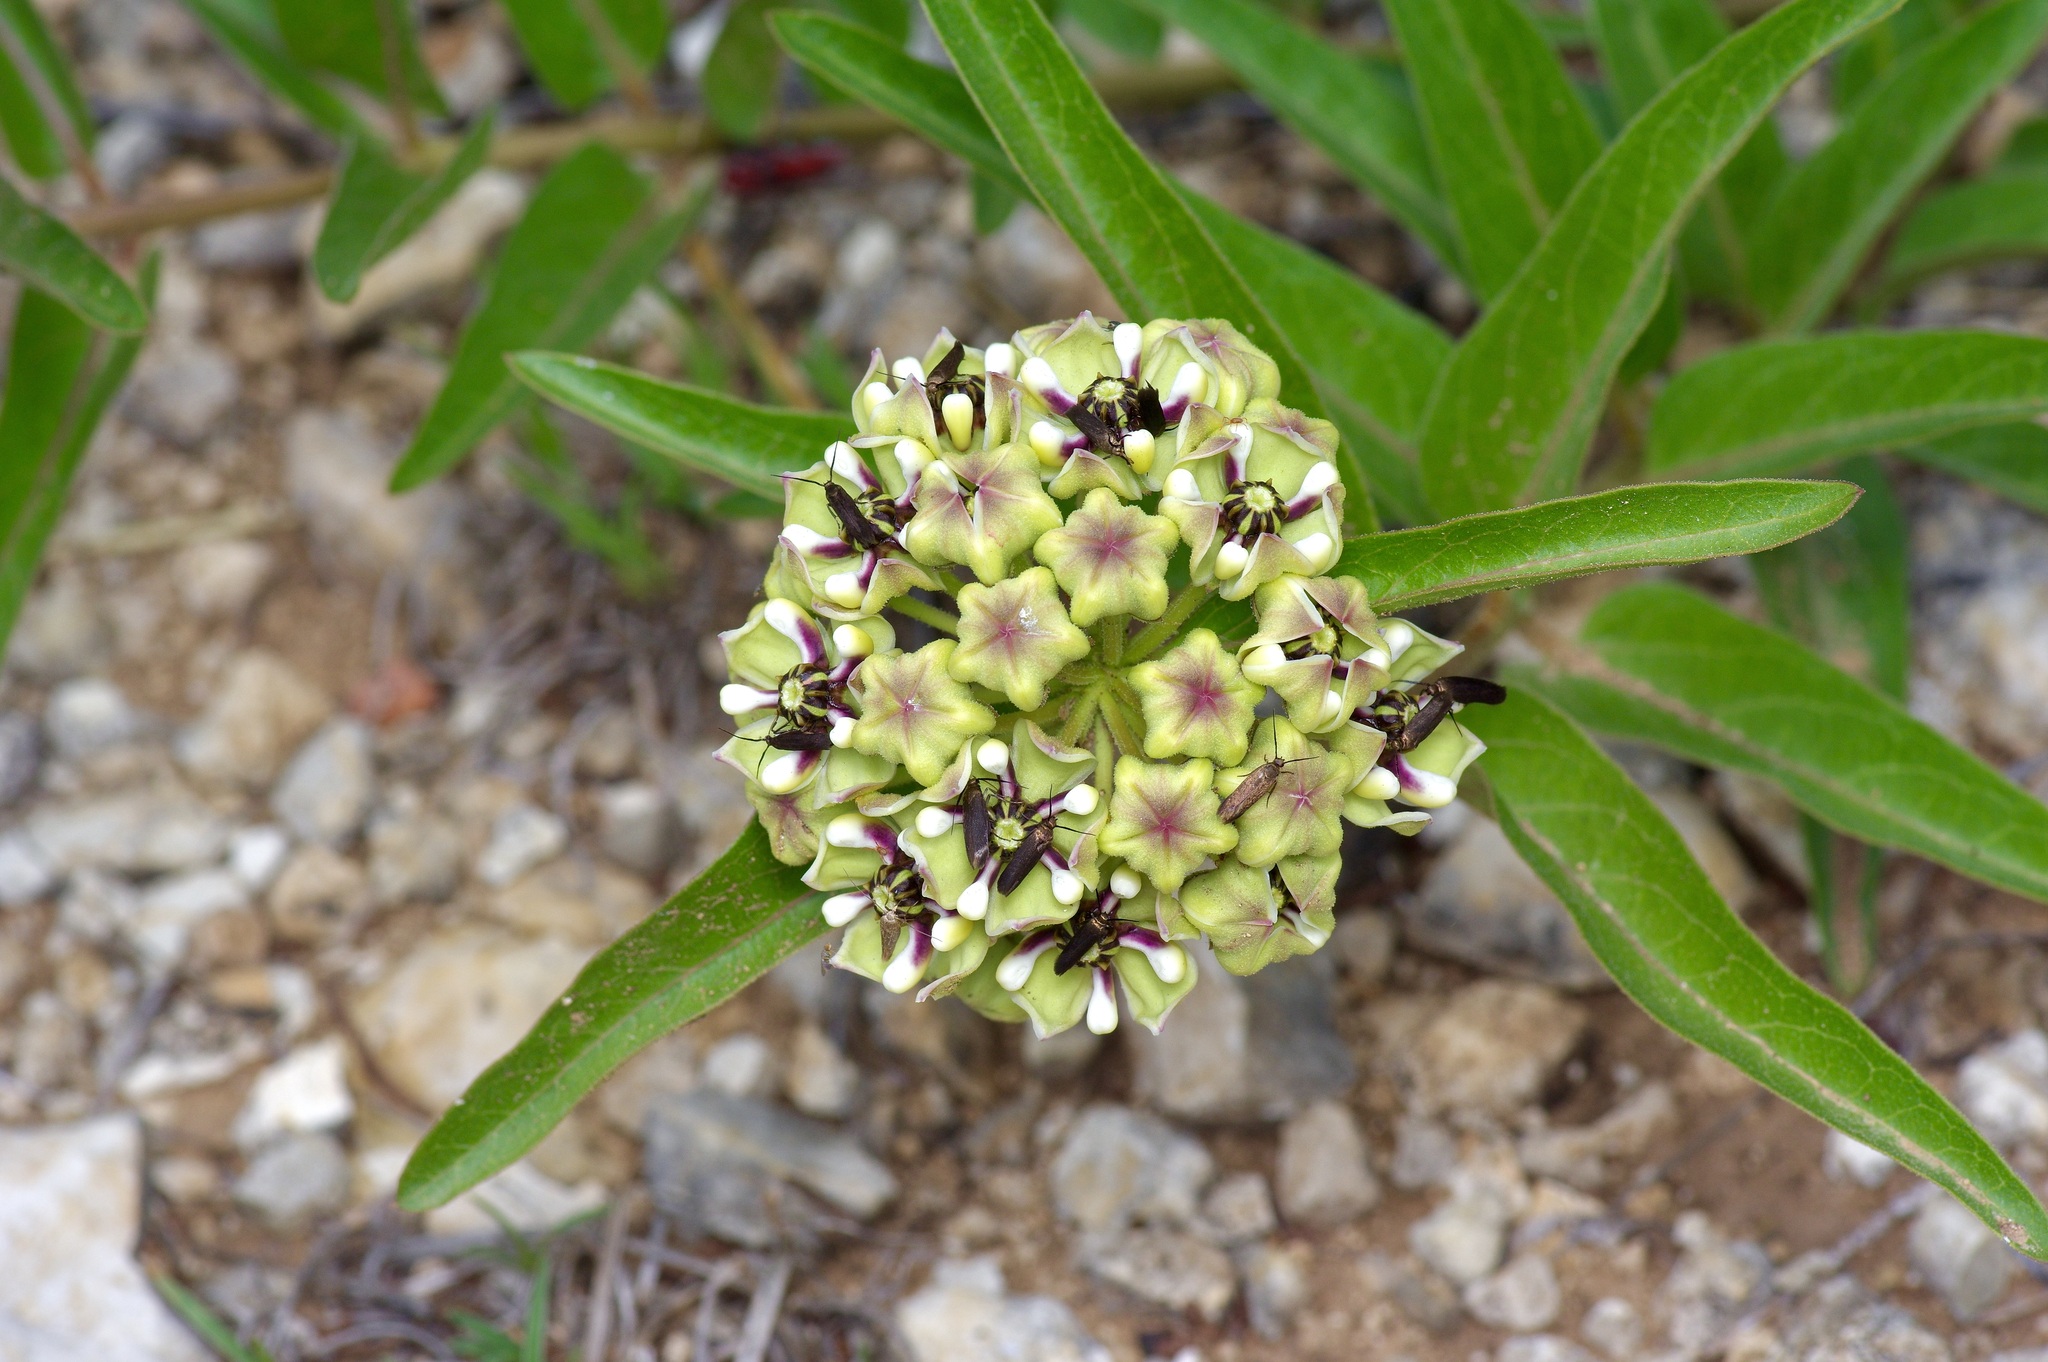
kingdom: Plantae
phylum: Tracheophyta
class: Magnoliopsida
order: Gentianales
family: Apocynaceae
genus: Asclepias
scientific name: Asclepias asperula
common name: Antelope horns
